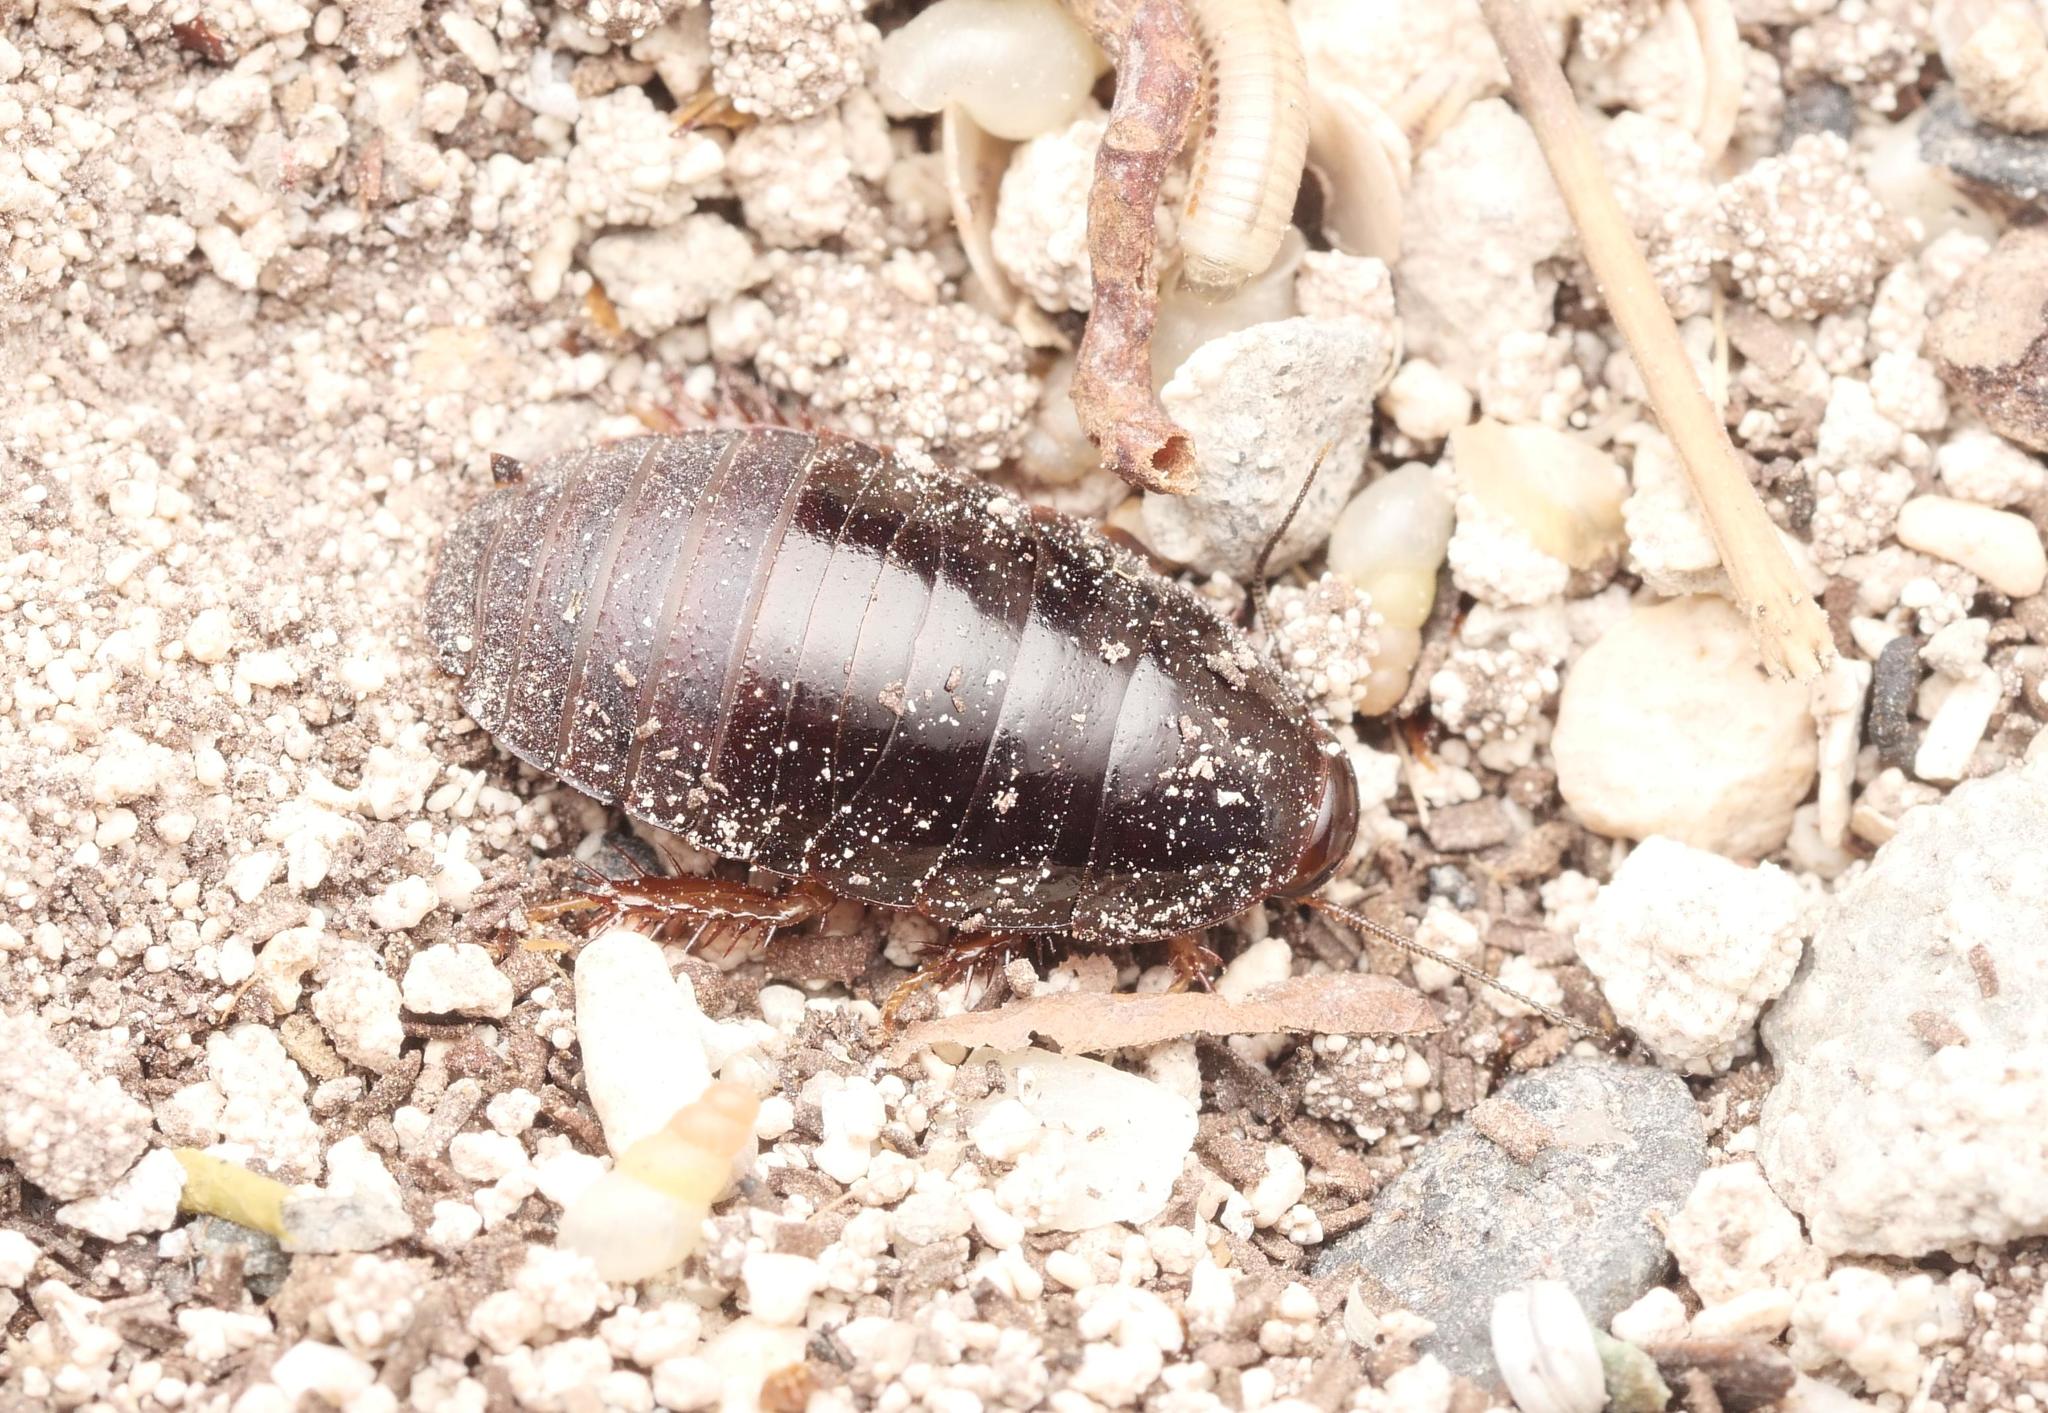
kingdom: Animalia
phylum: Arthropoda
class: Insecta
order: Blattodea
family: Blaberidae
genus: Pycnoscelus
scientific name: Pycnoscelus surinamensis
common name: Surinam cockroach
